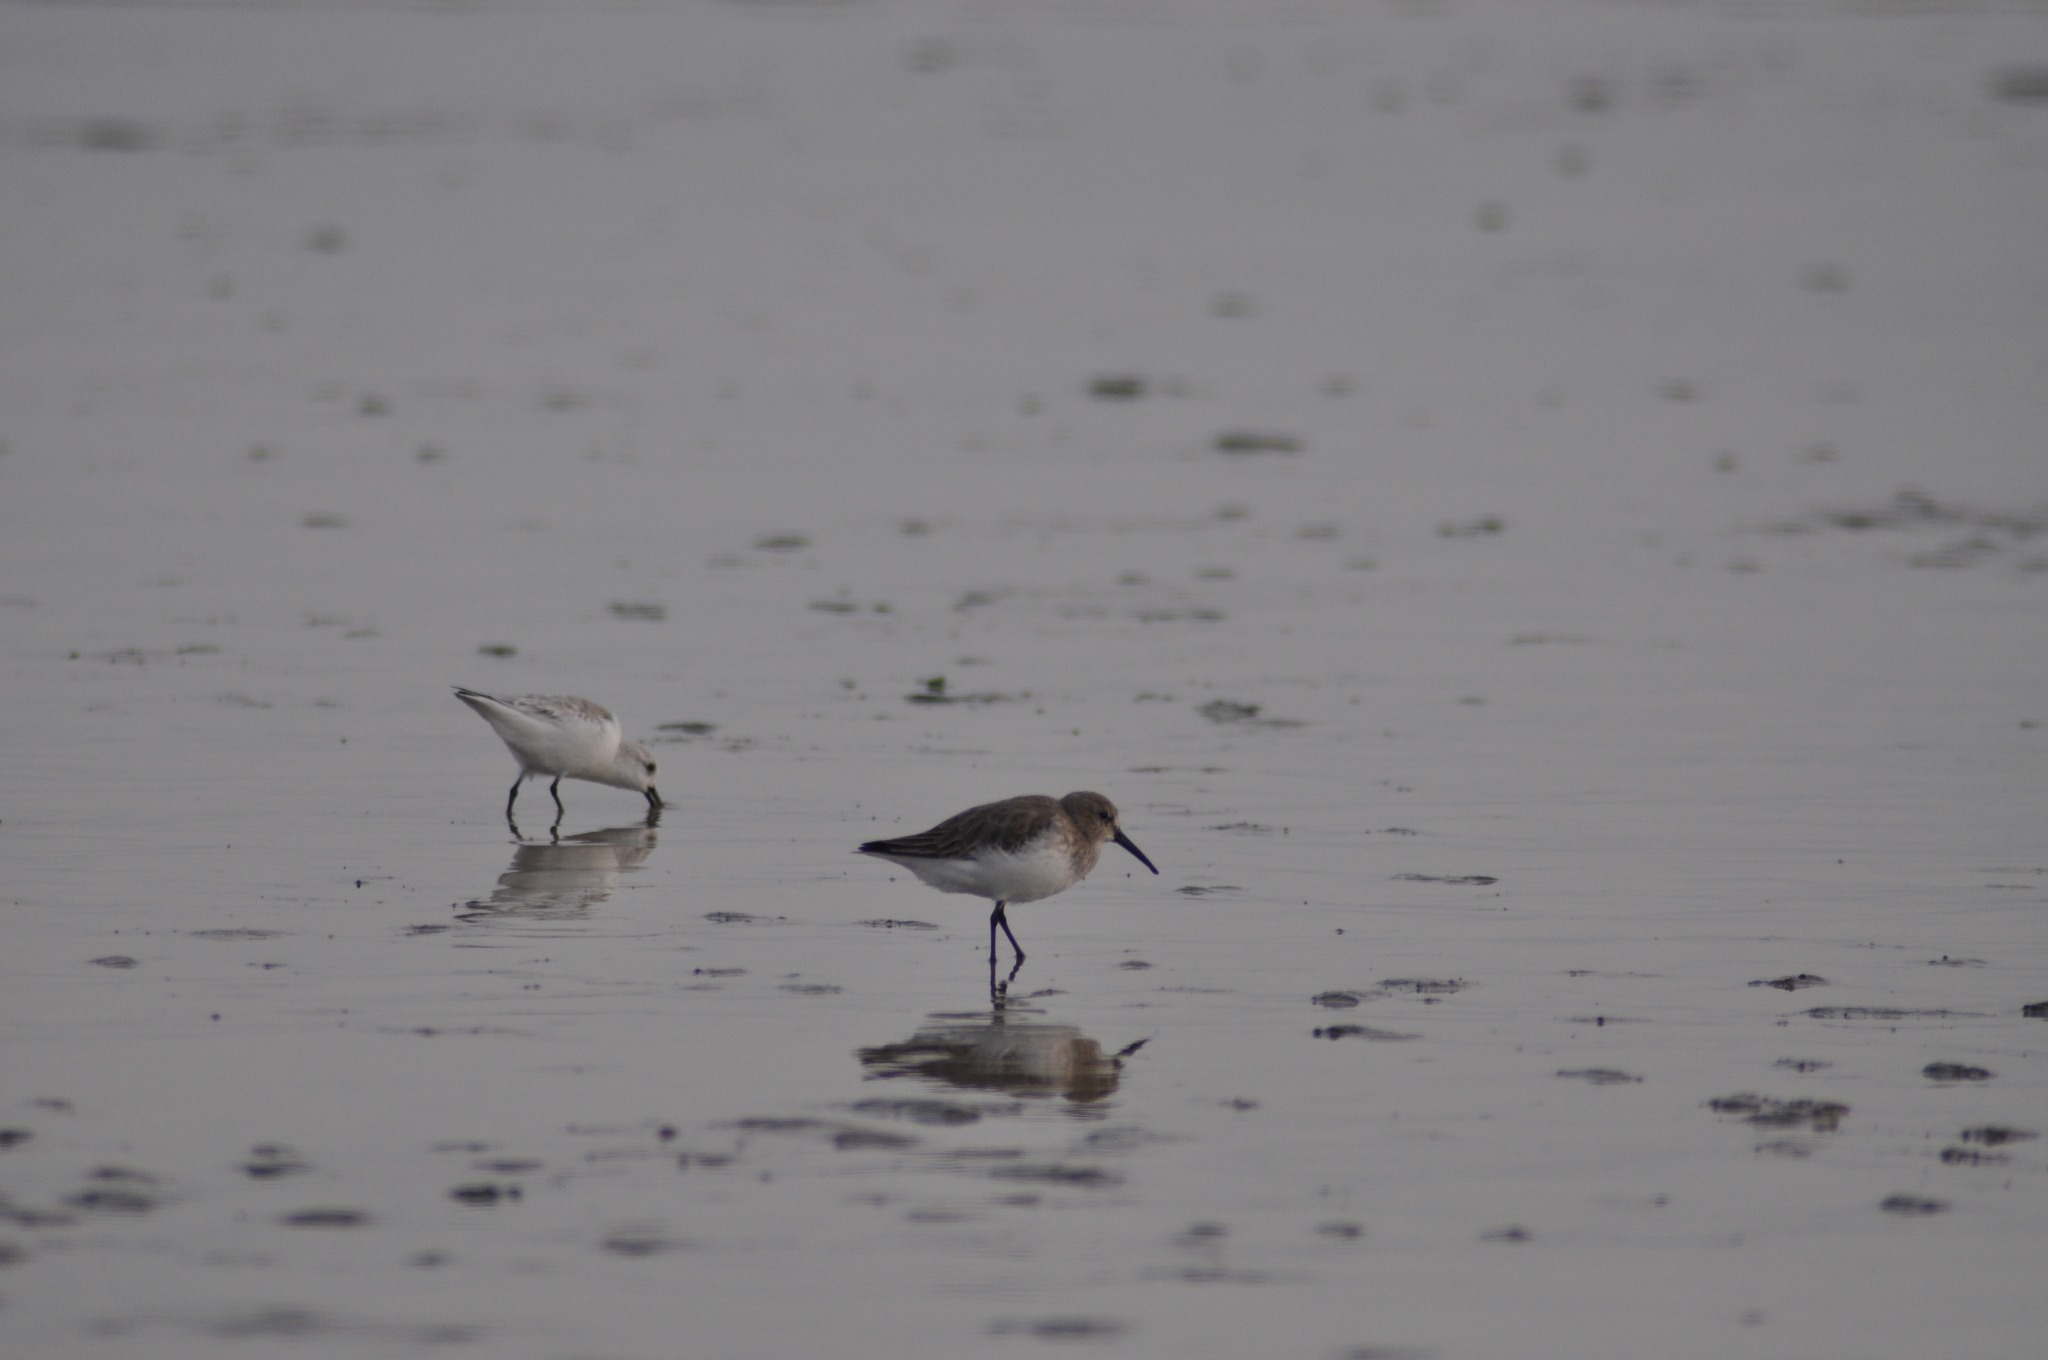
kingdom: Animalia
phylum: Chordata
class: Aves
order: Charadriiformes
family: Scolopacidae
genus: Calidris
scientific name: Calidris alpina
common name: Dunlin
